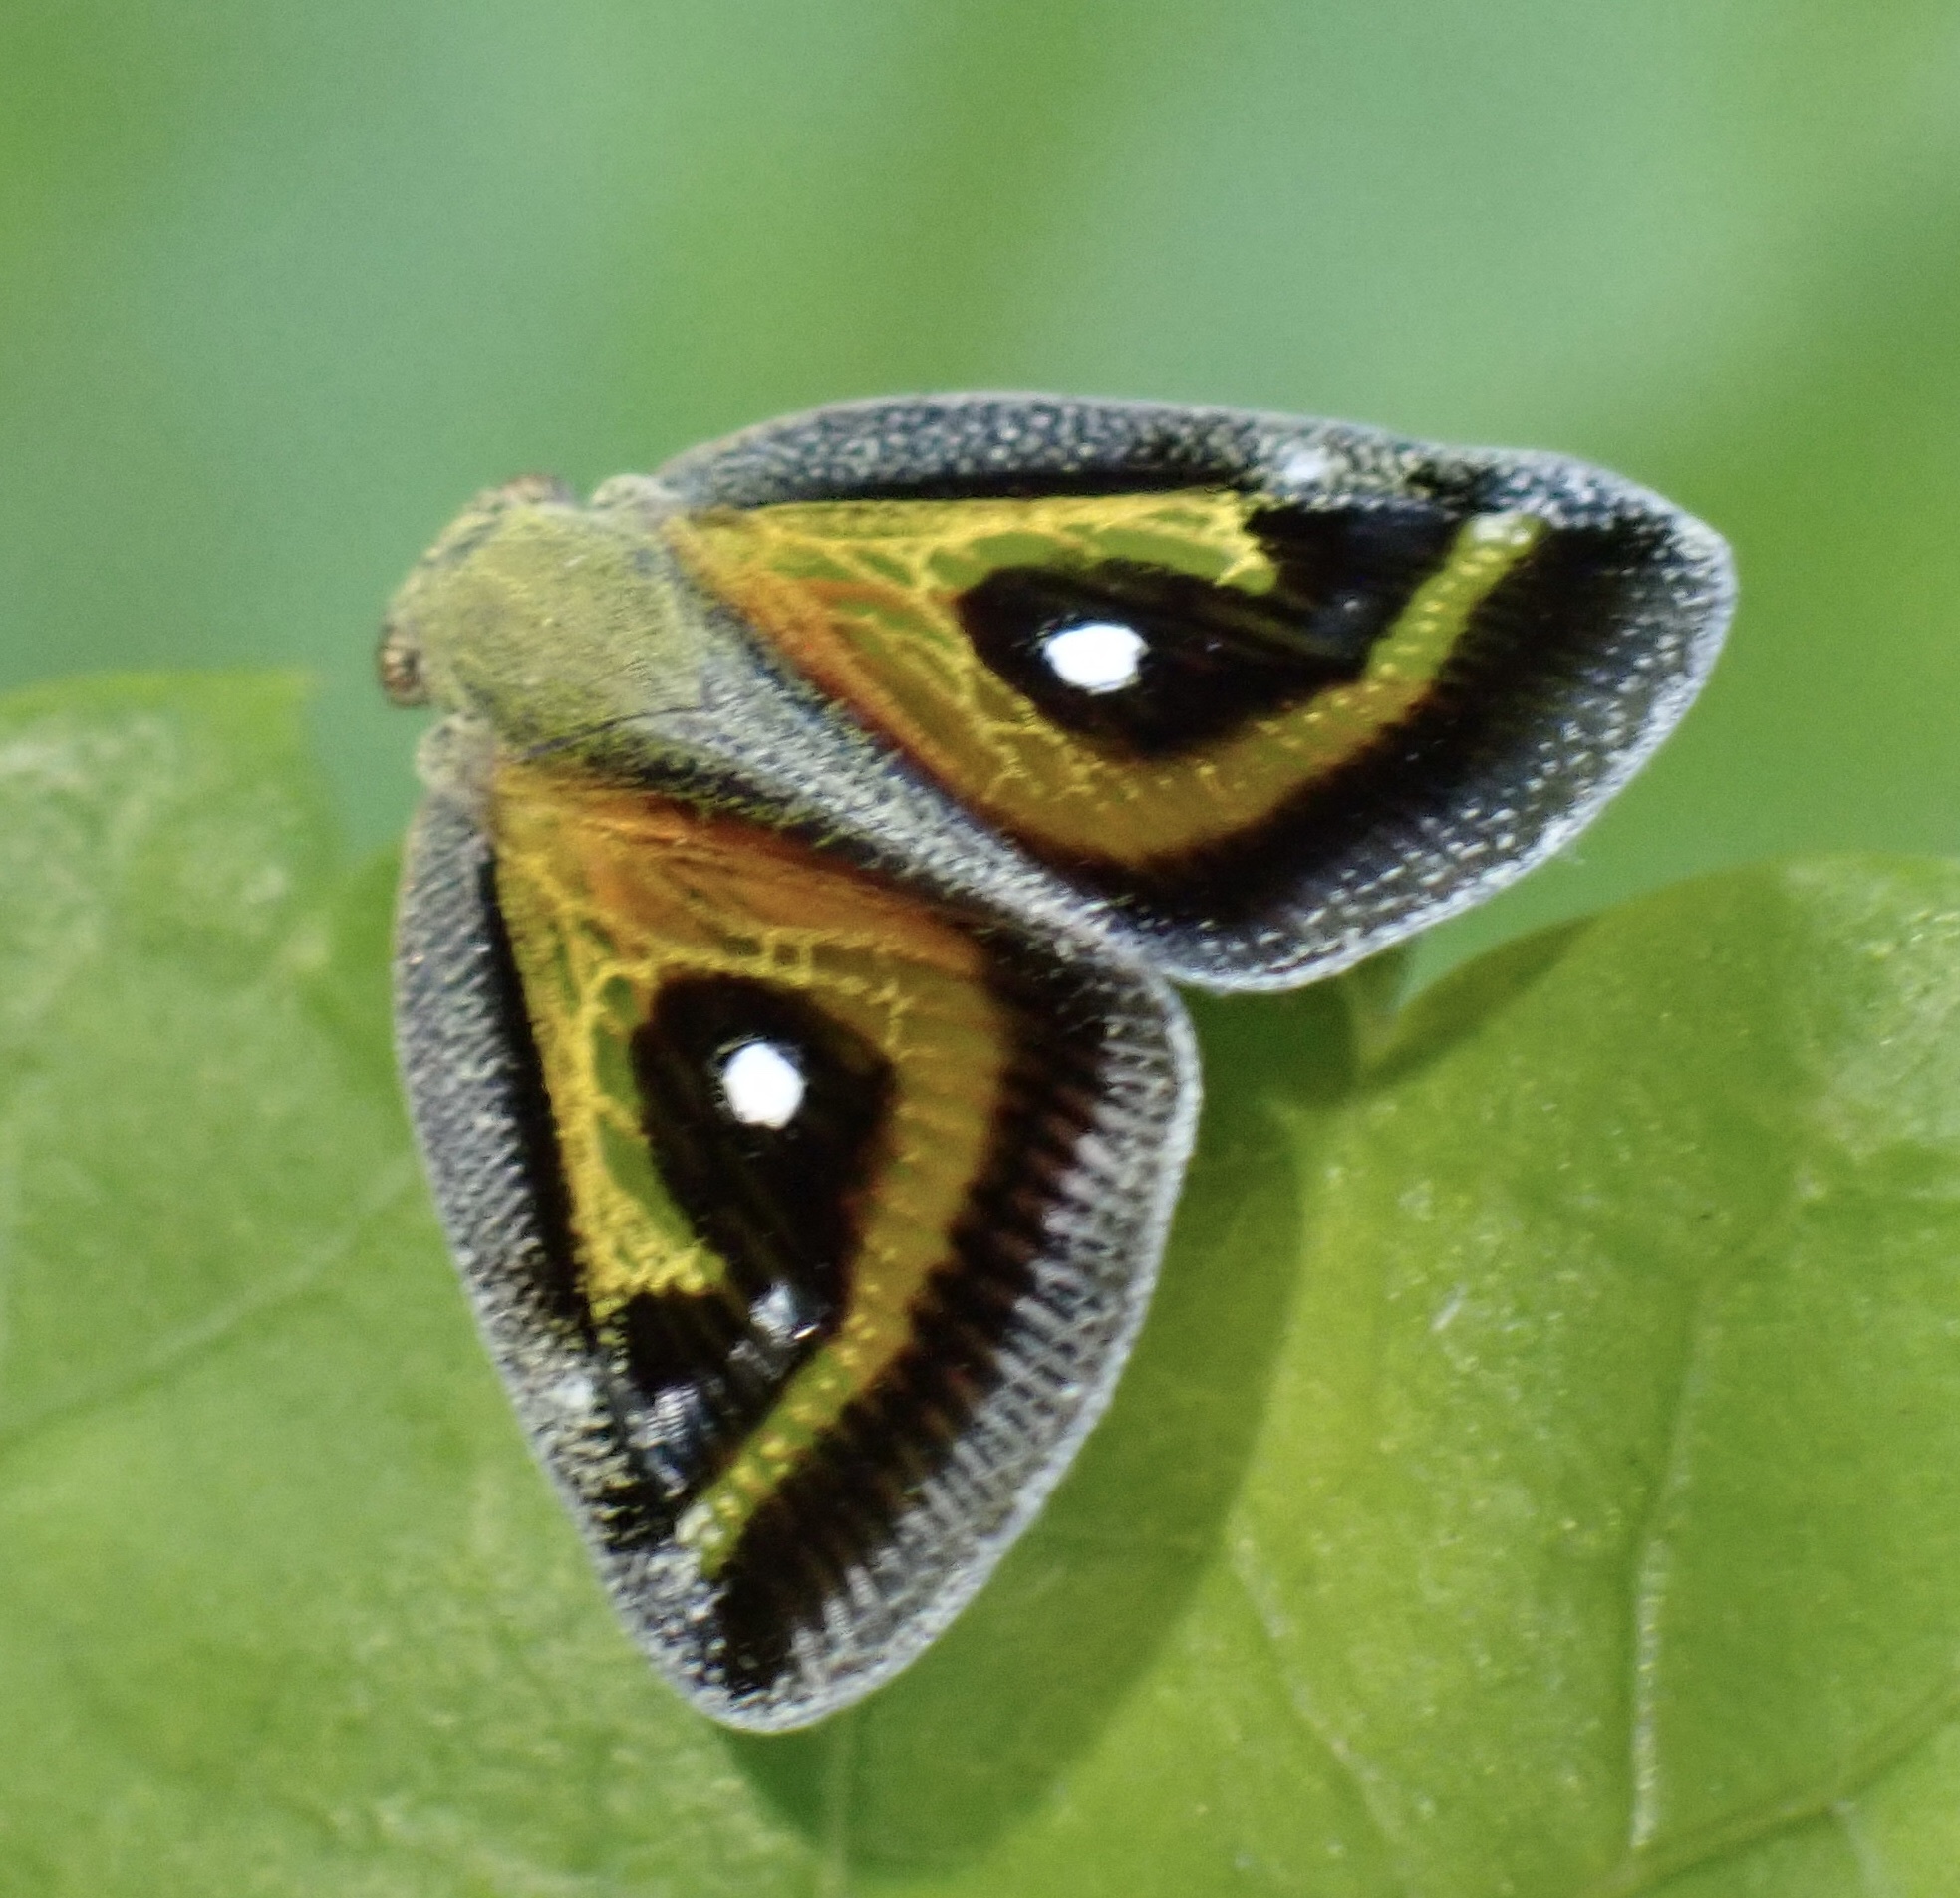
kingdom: Animalia
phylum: Arthropoda
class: Insecta
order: Hemiptera
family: Ricaniidae
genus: Euricania
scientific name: Euricania splendida
